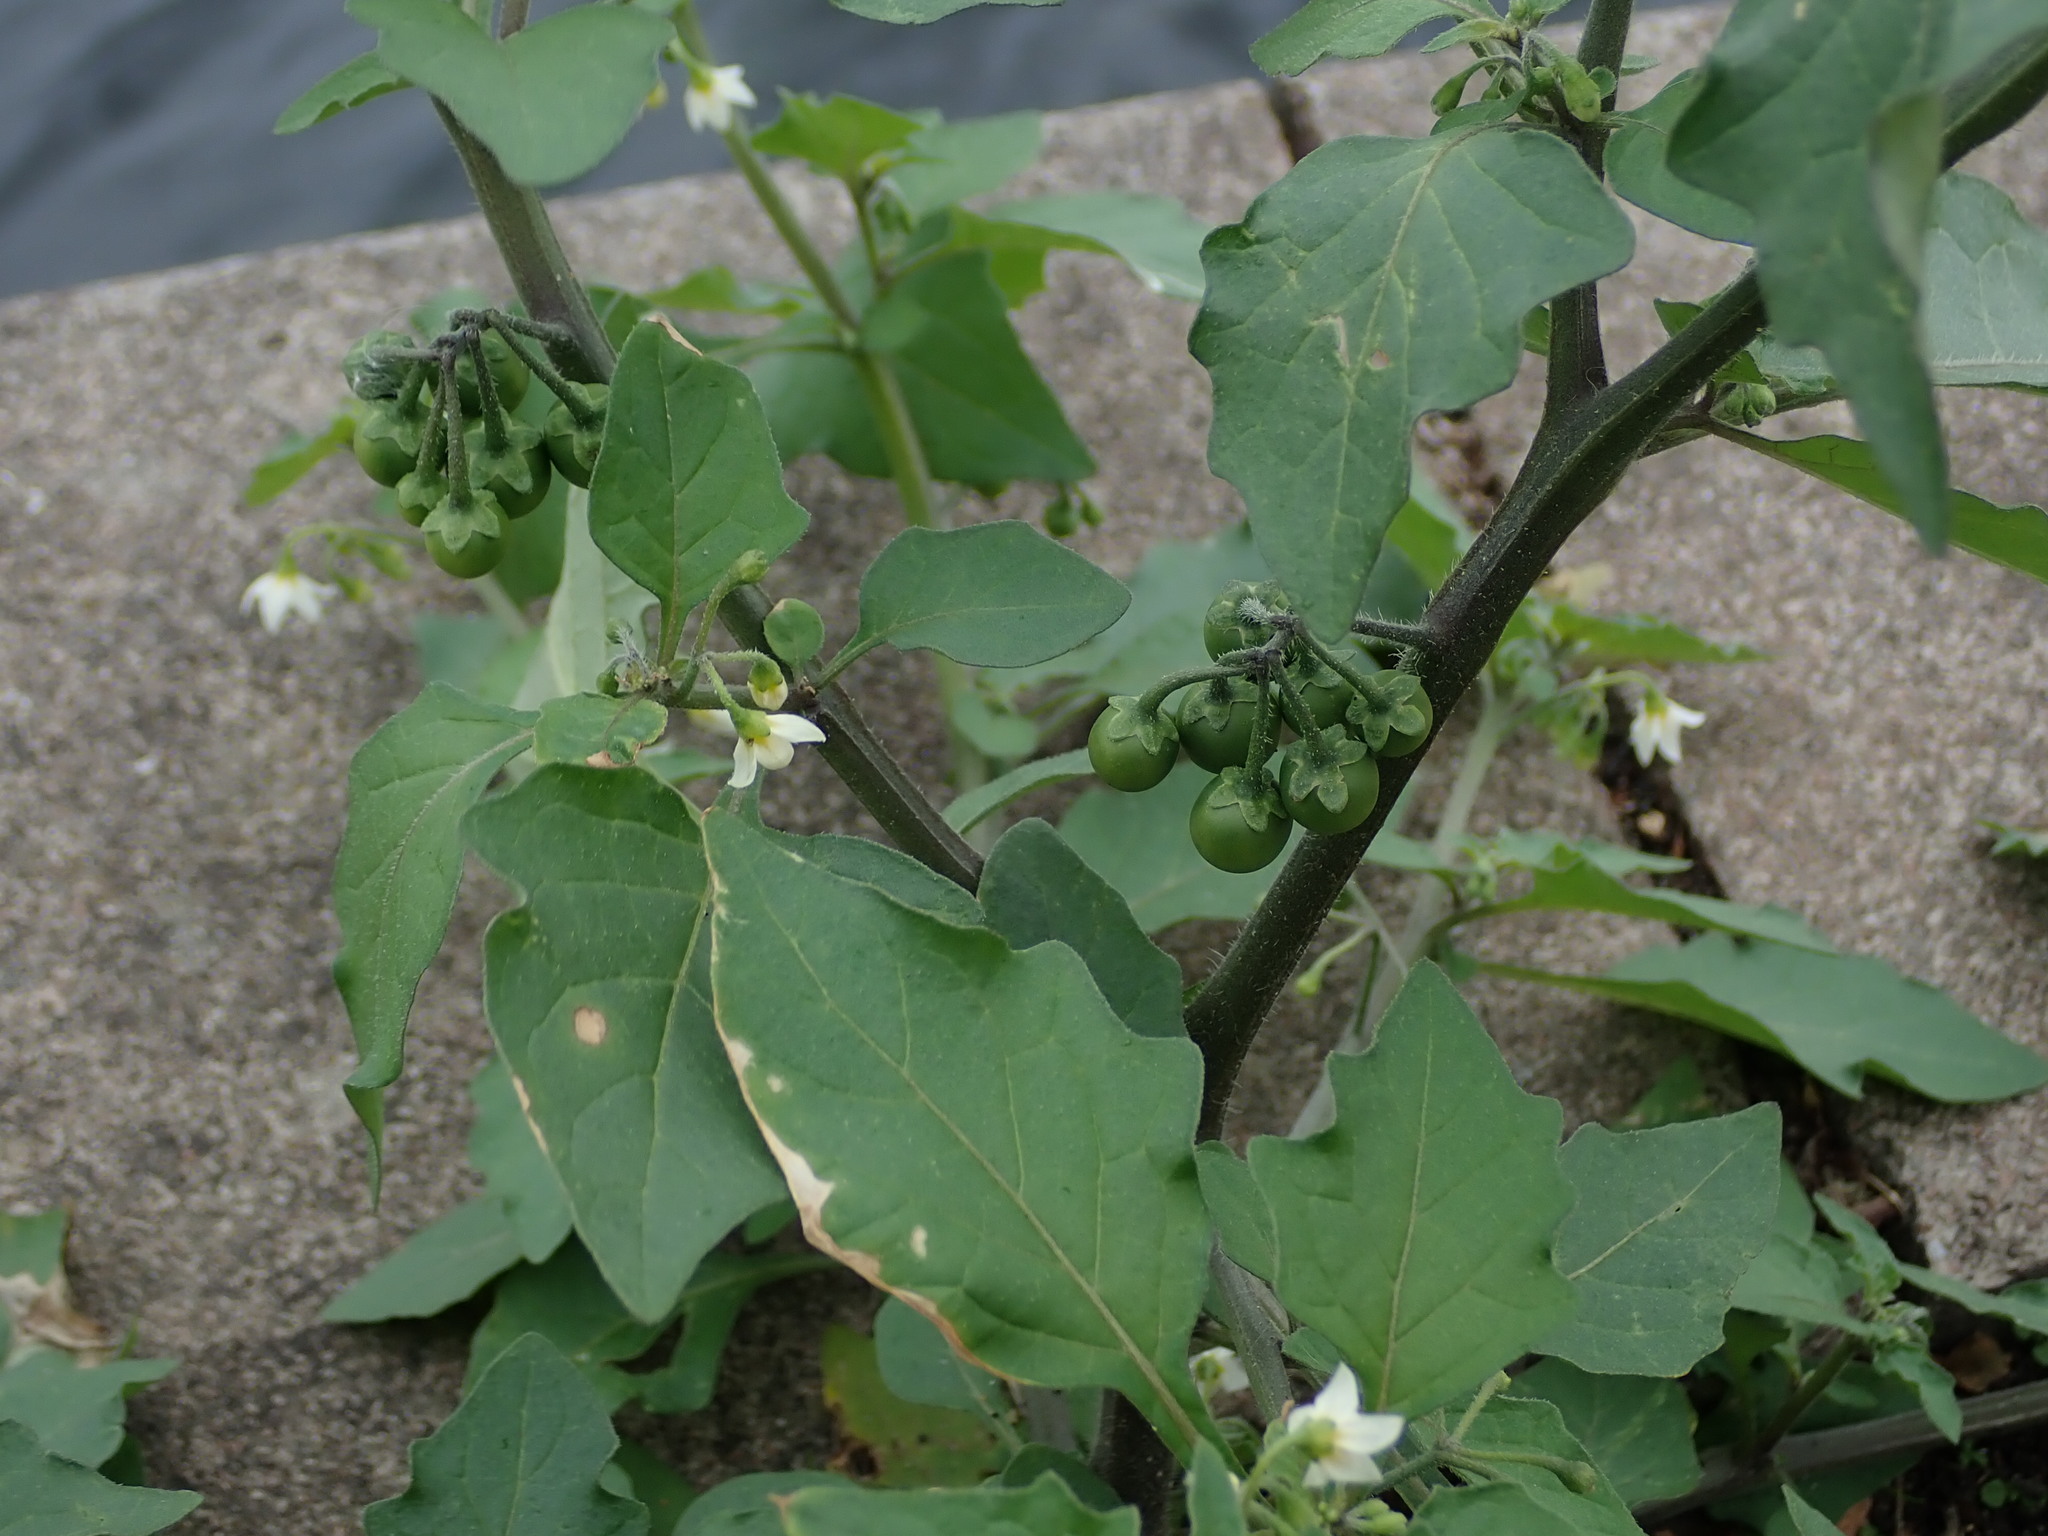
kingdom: Plantae
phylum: Tracheophyta
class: Magnoliopsida
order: Solanales
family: Solanaceae
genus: Solanum
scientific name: Solanum nigrum
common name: Black nightshade
